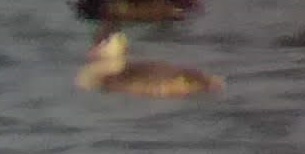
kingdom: Animalia
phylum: Chordata
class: Aves
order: Podicipediformes
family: Podicipedidae
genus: Podiceps
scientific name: Podiceps cristatus
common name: Great crested grebe
